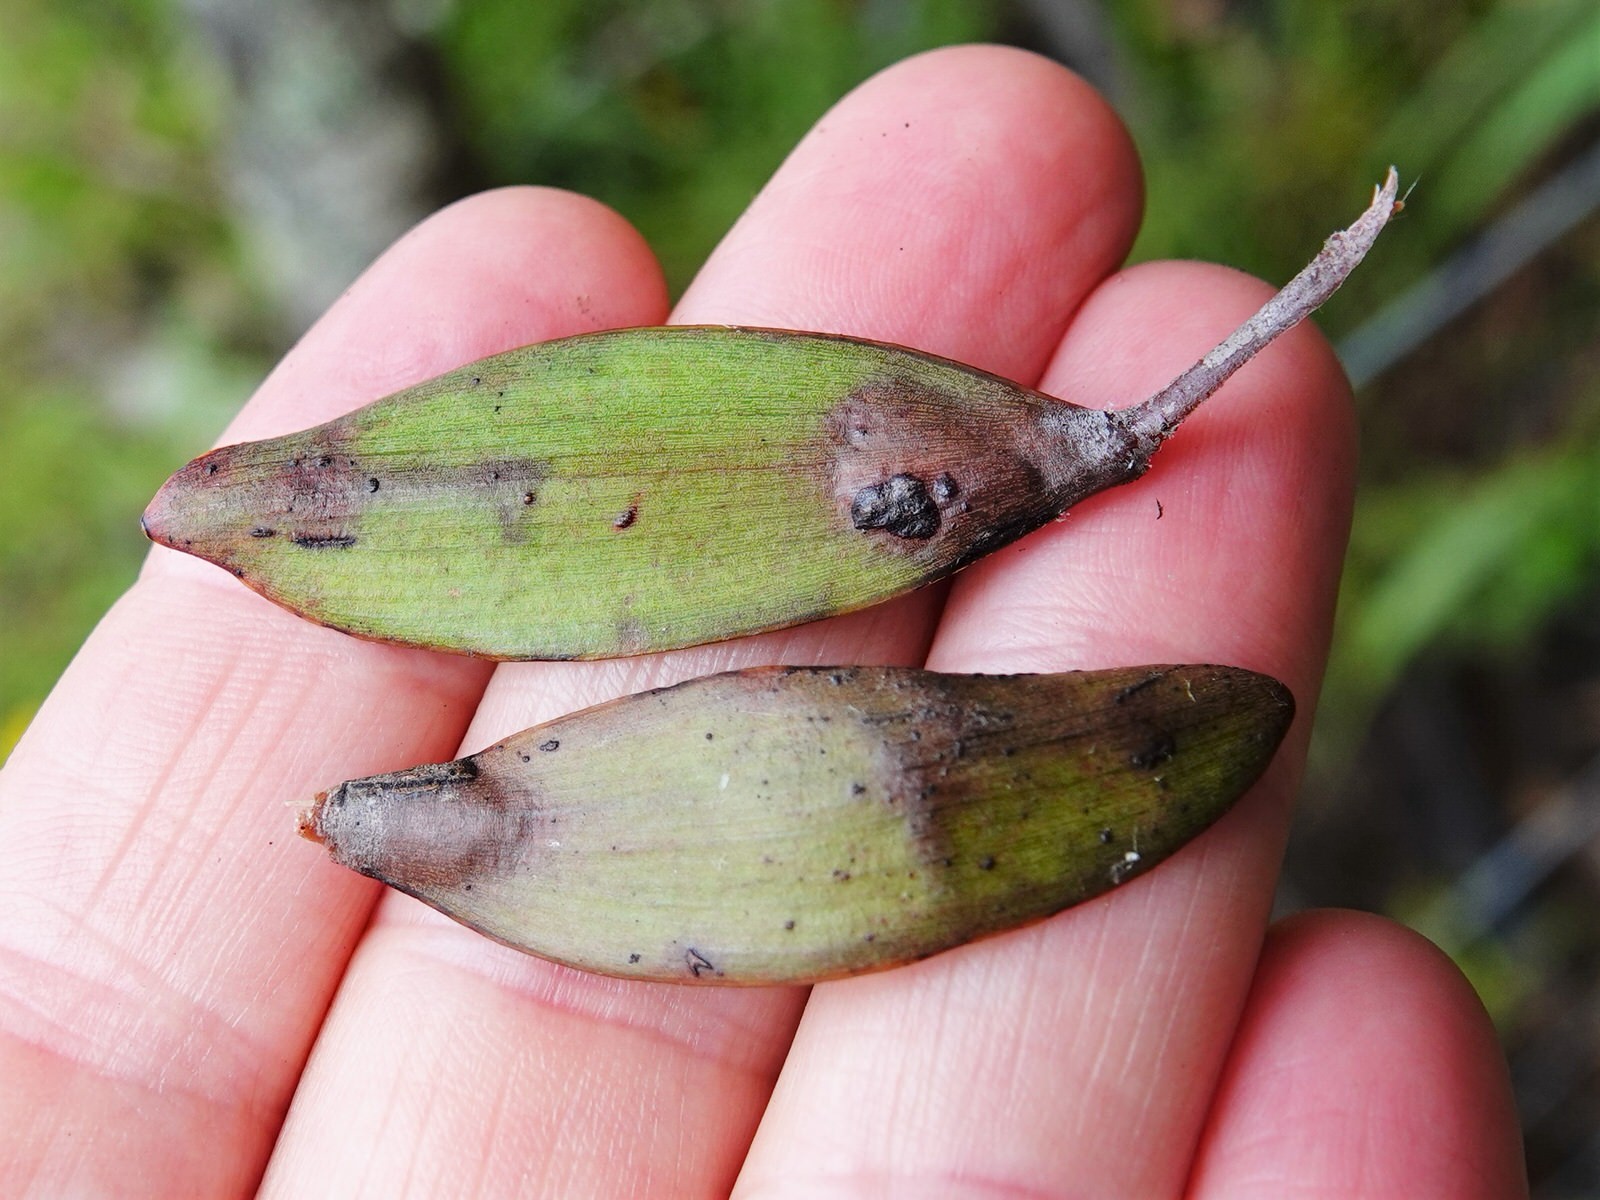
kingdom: Animalia
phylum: Arthropoda
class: Insecta
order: Lepidoptera
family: Gracillariidae
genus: Acrocercops
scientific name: Acrocercops leucotoma
